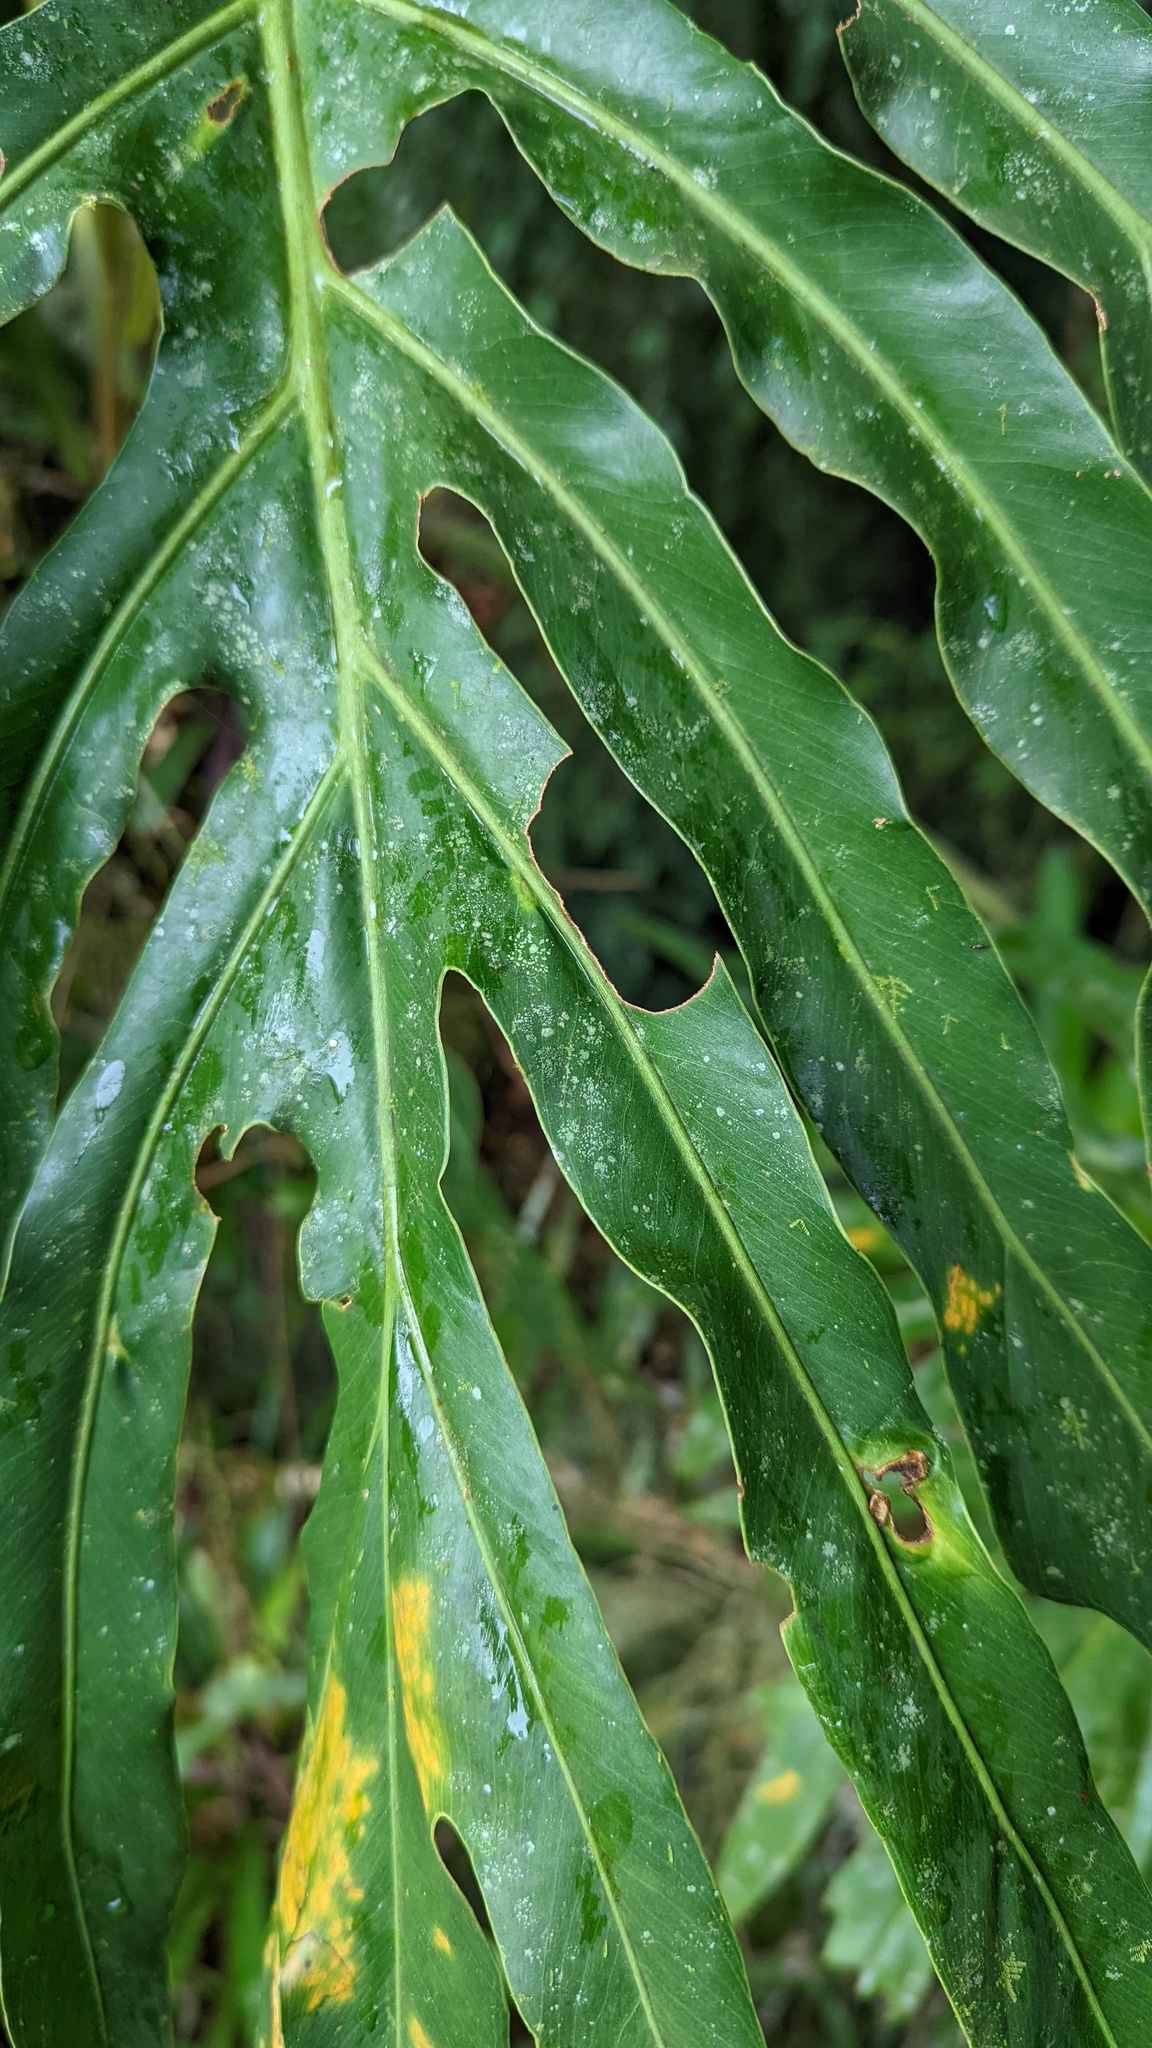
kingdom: Plantae
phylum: Tracheophyta
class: Liliopsida
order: Alismatales
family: Araceae
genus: Philodendron
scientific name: Philodendron radiatum
